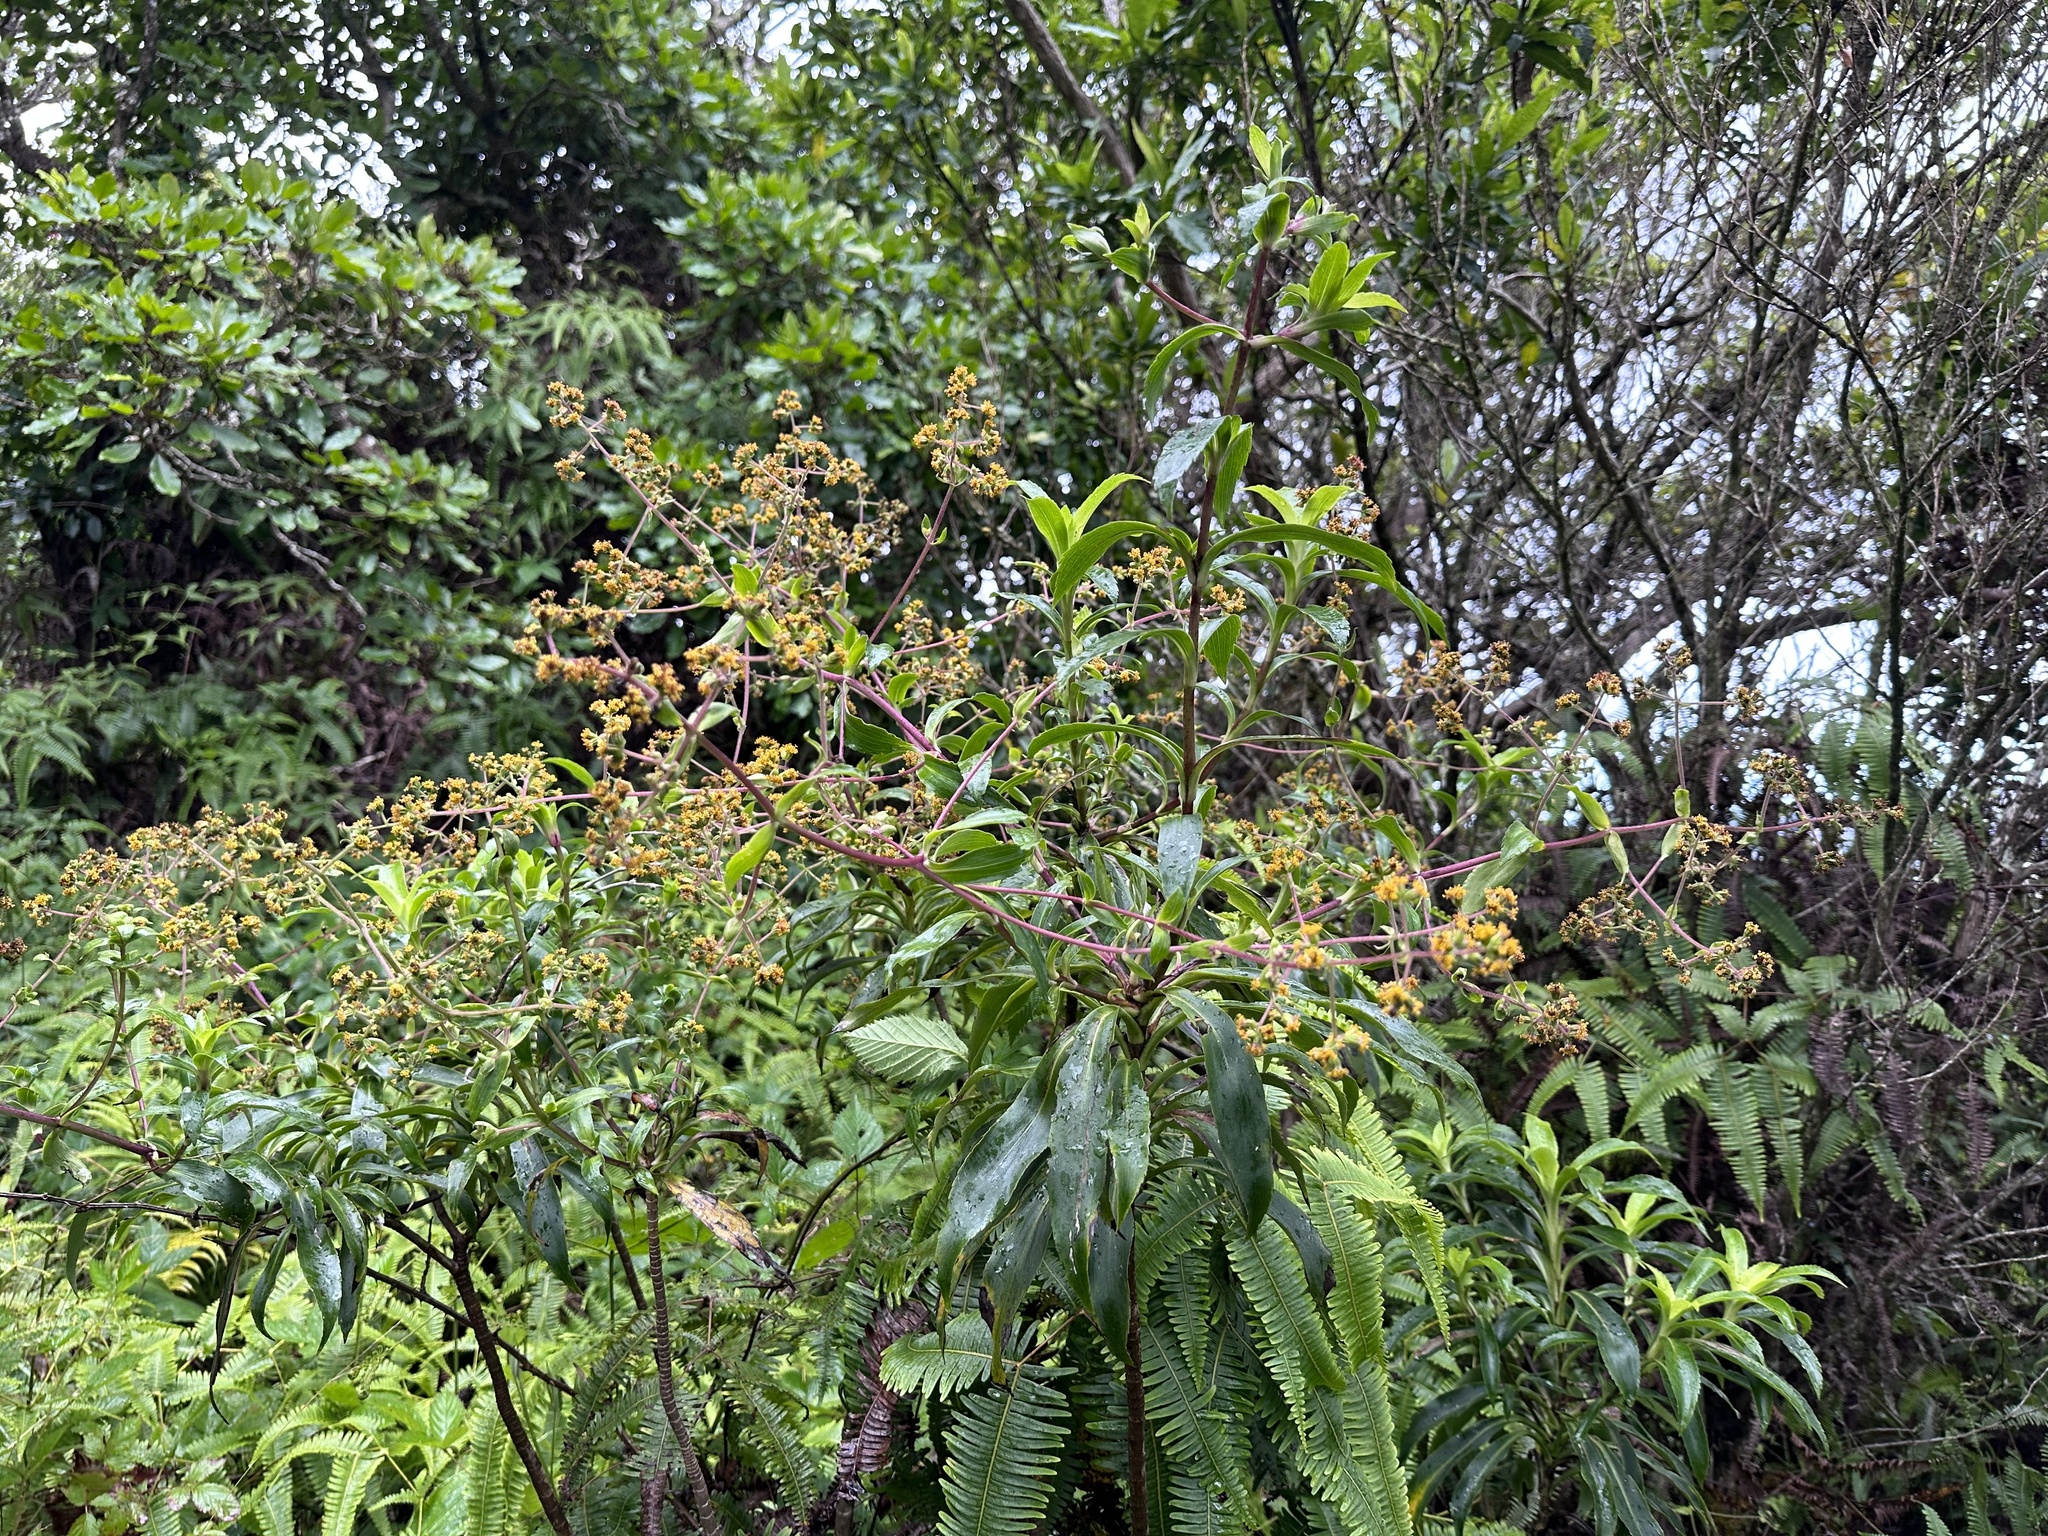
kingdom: Plantae
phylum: Tracheophyta
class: Magnoliopsida
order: Asterales
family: Asteraceae
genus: Dubautia
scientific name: Dubautia laevigata
